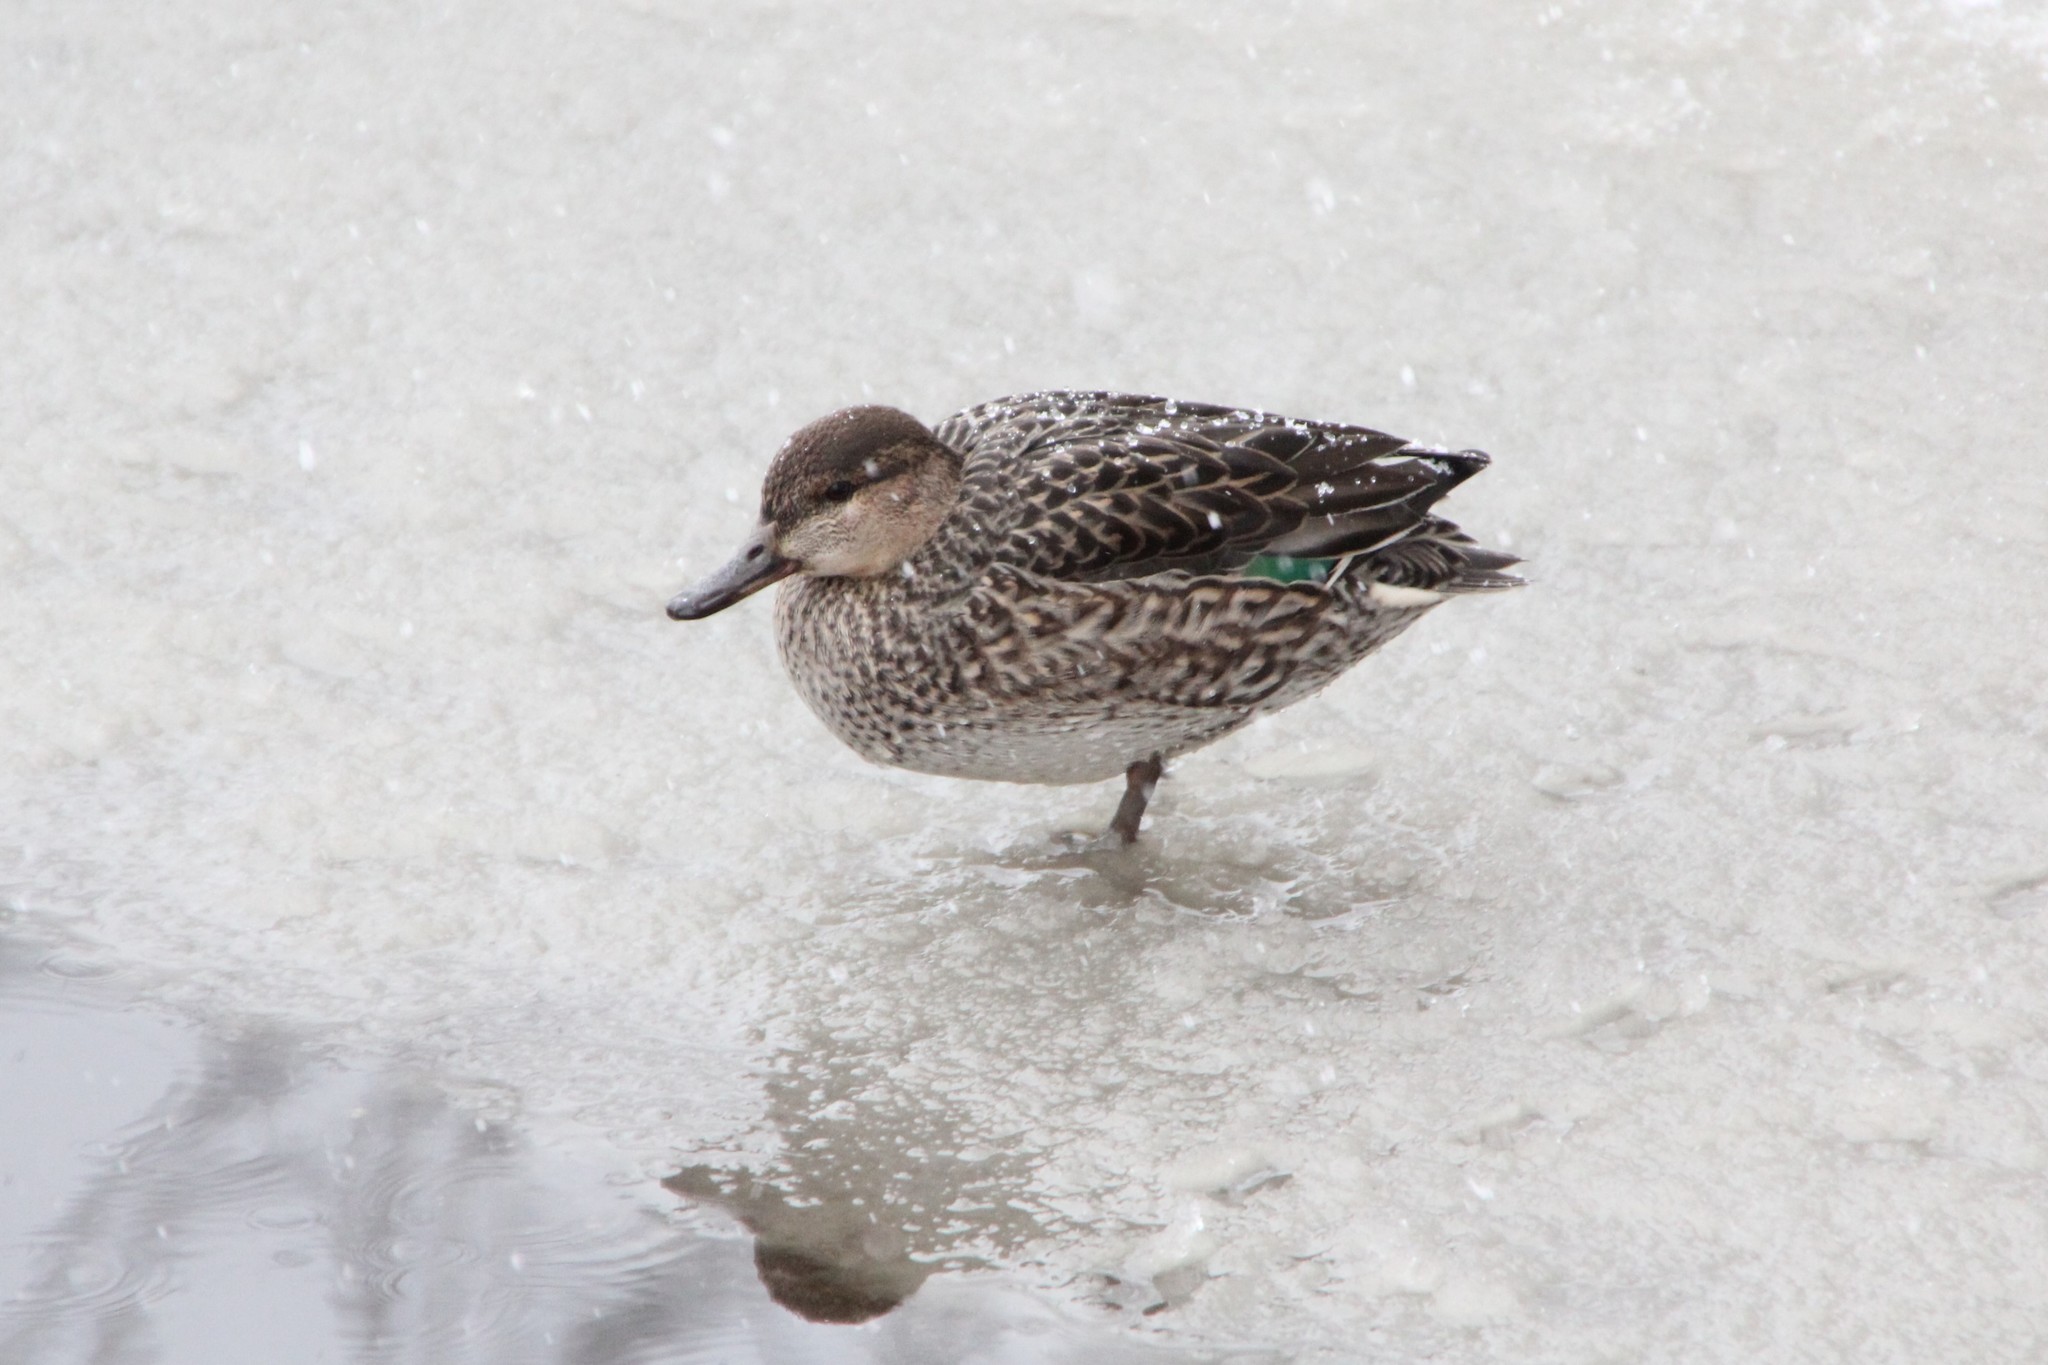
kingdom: Animalia
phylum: Chordata
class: Aves
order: Anseriformes
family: Anatidae
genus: Anas
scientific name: Anas crecca
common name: Eurasian teal
